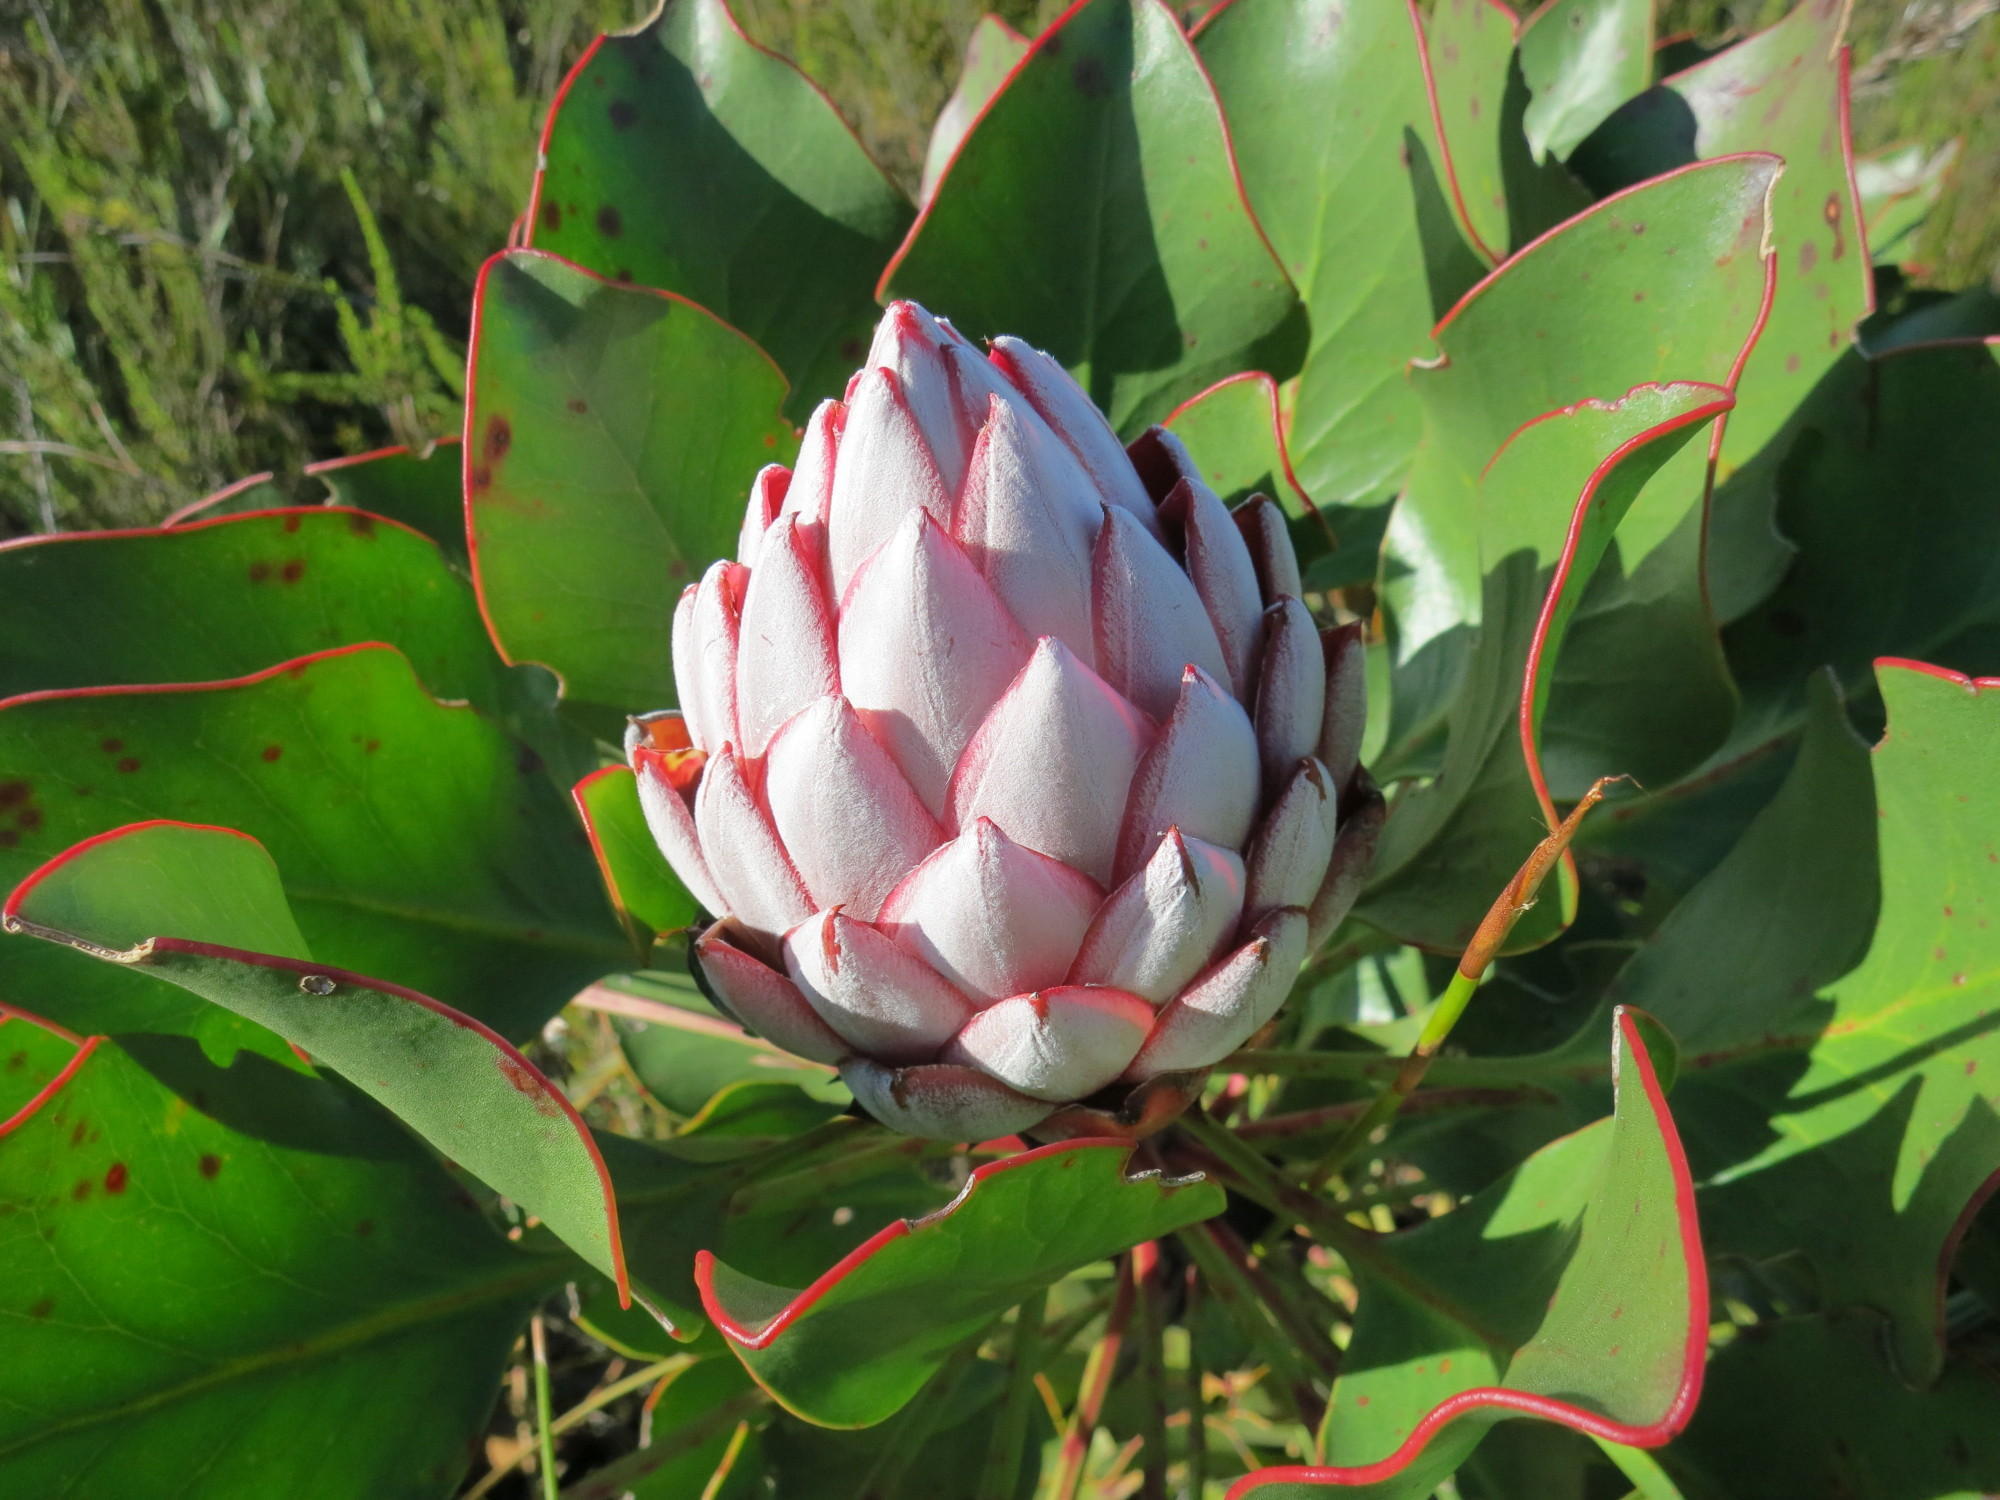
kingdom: Plantae
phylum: Tracheophyta
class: Magnoliopsida
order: Proteales
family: Proteaceae
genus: Protea
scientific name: Protea cynaroides
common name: King protea
